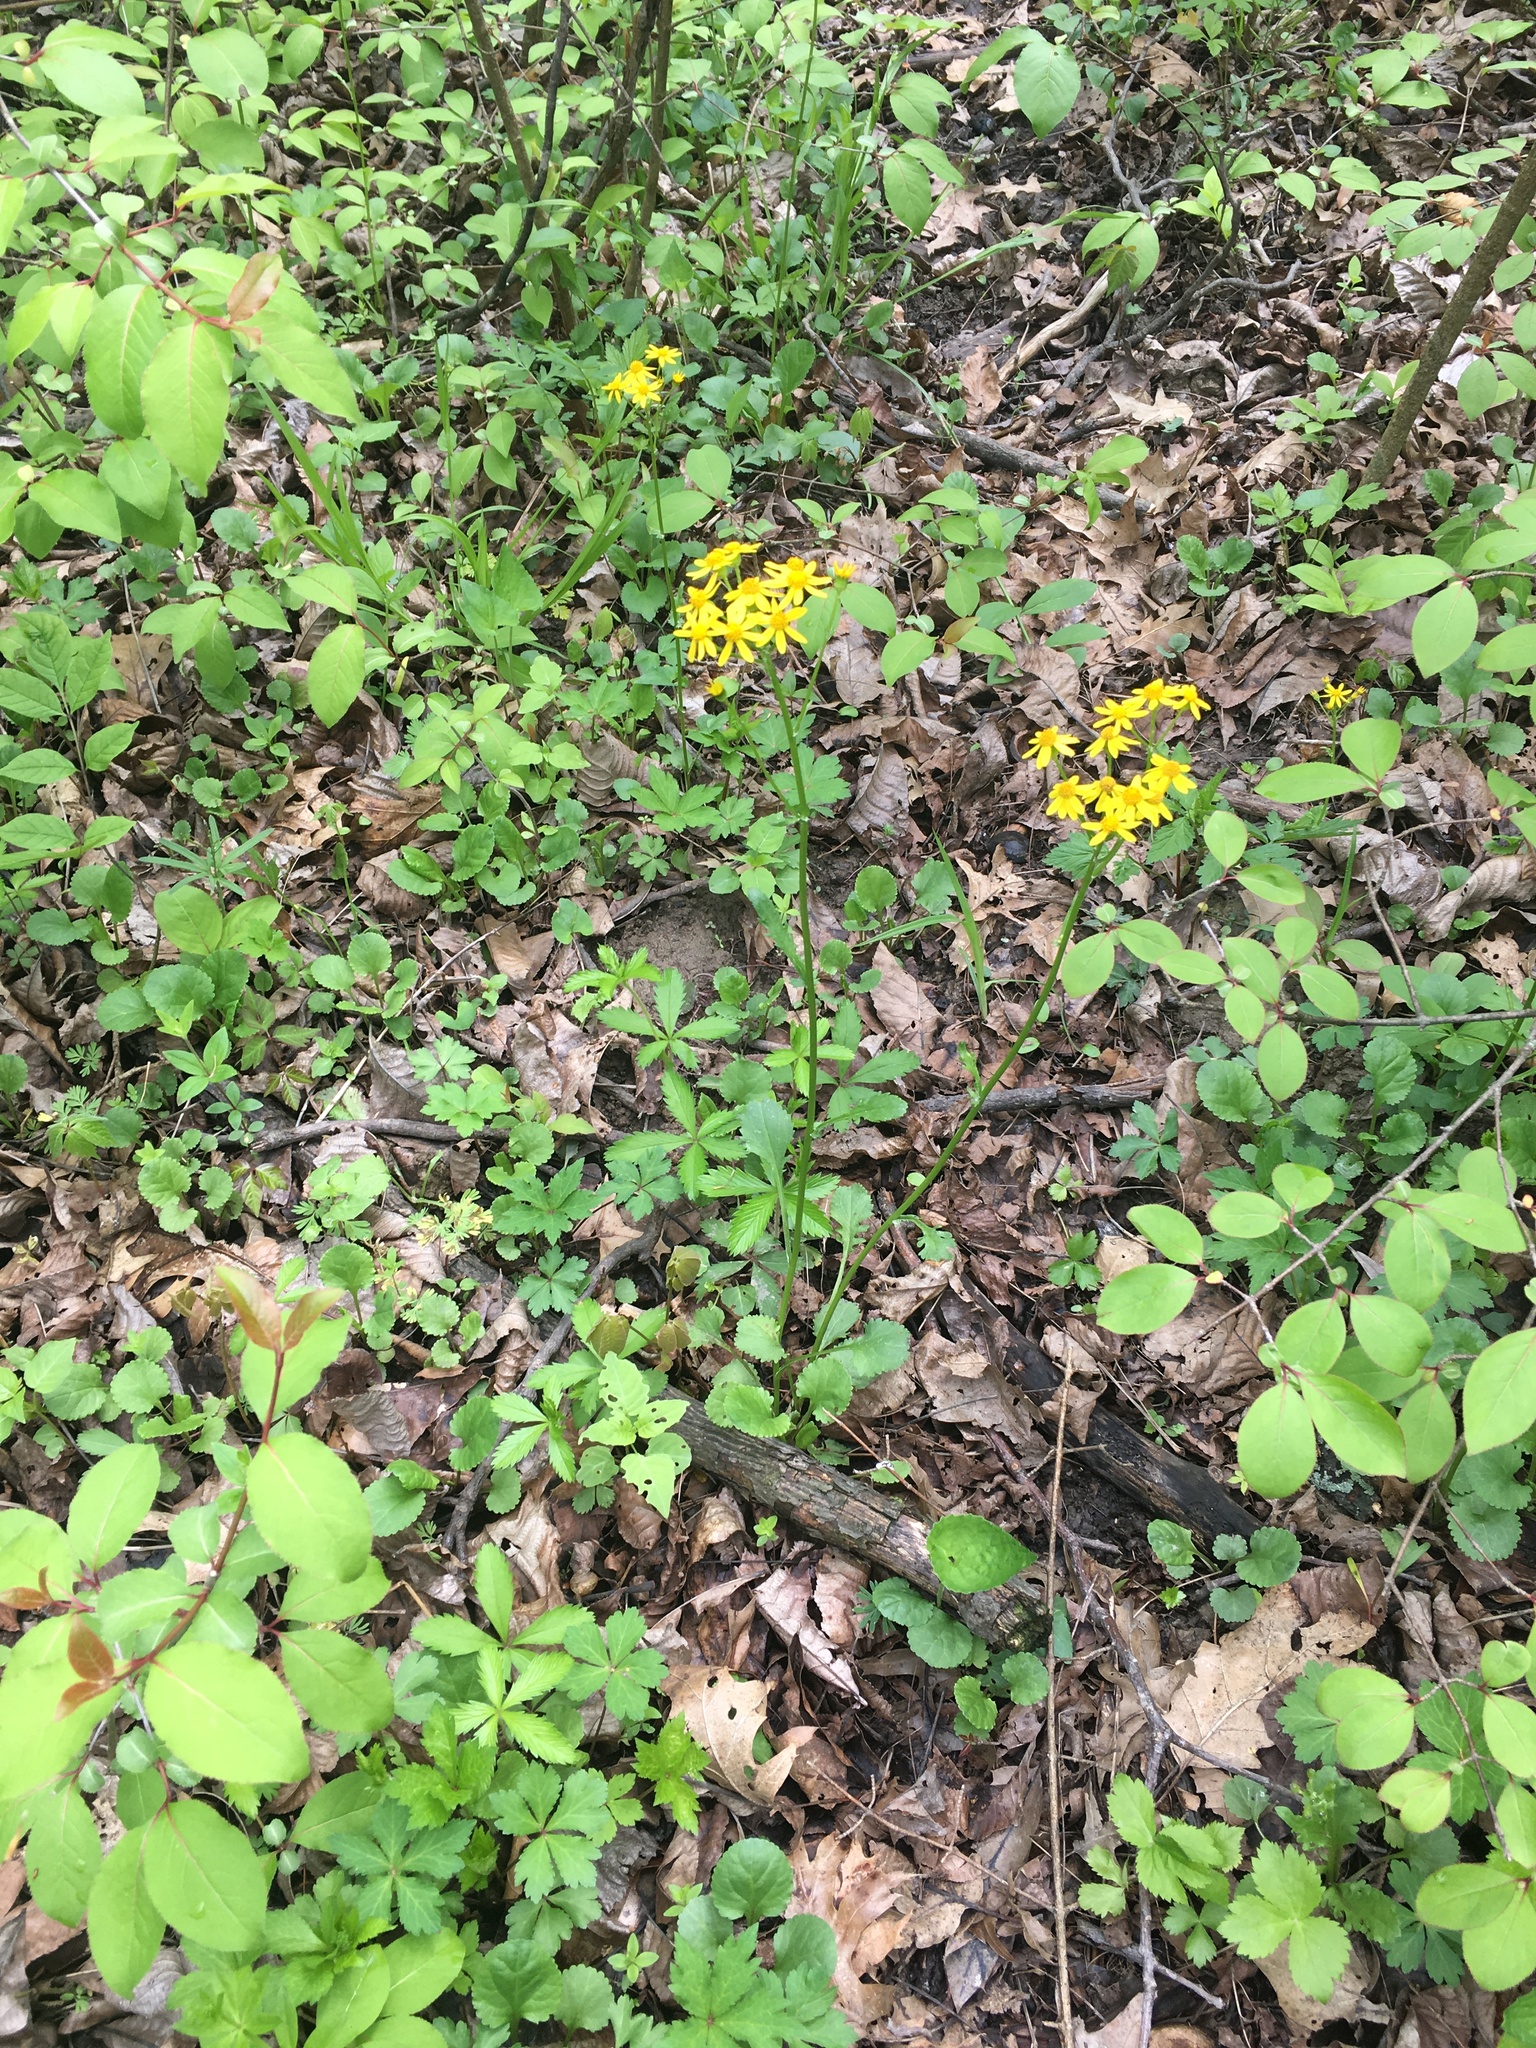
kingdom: Plantae
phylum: Tracheophyta
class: Magnoliopsida
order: Asterales
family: Asteraceae
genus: Packera
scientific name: Packera obovata
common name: Round-leaf ragwort
